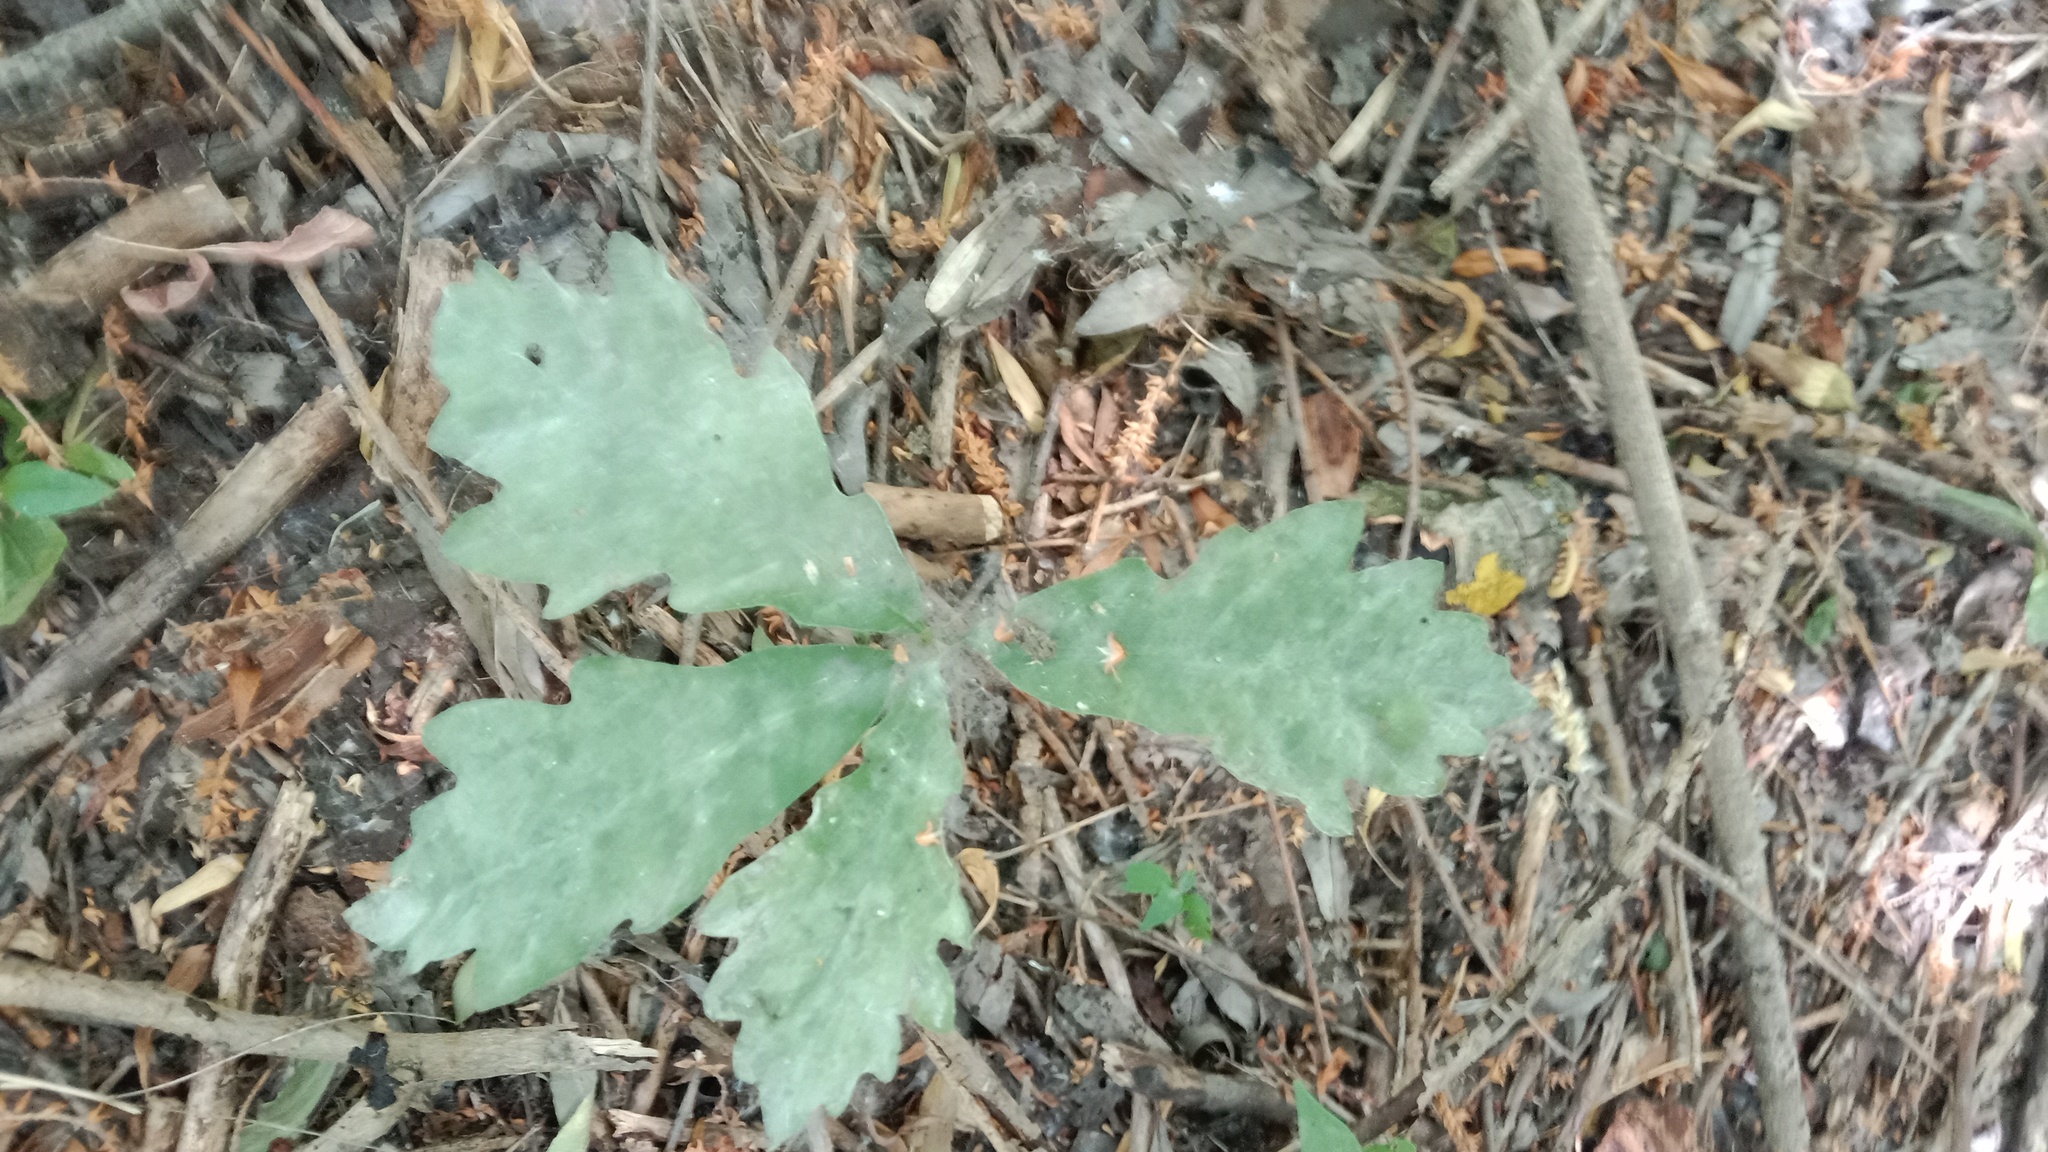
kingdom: Plantae
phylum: Tracheophyta
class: Magnoliopsida
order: Fagales
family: Fagaceae
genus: Quercus
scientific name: Quercus robur
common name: Pedunculate oak
